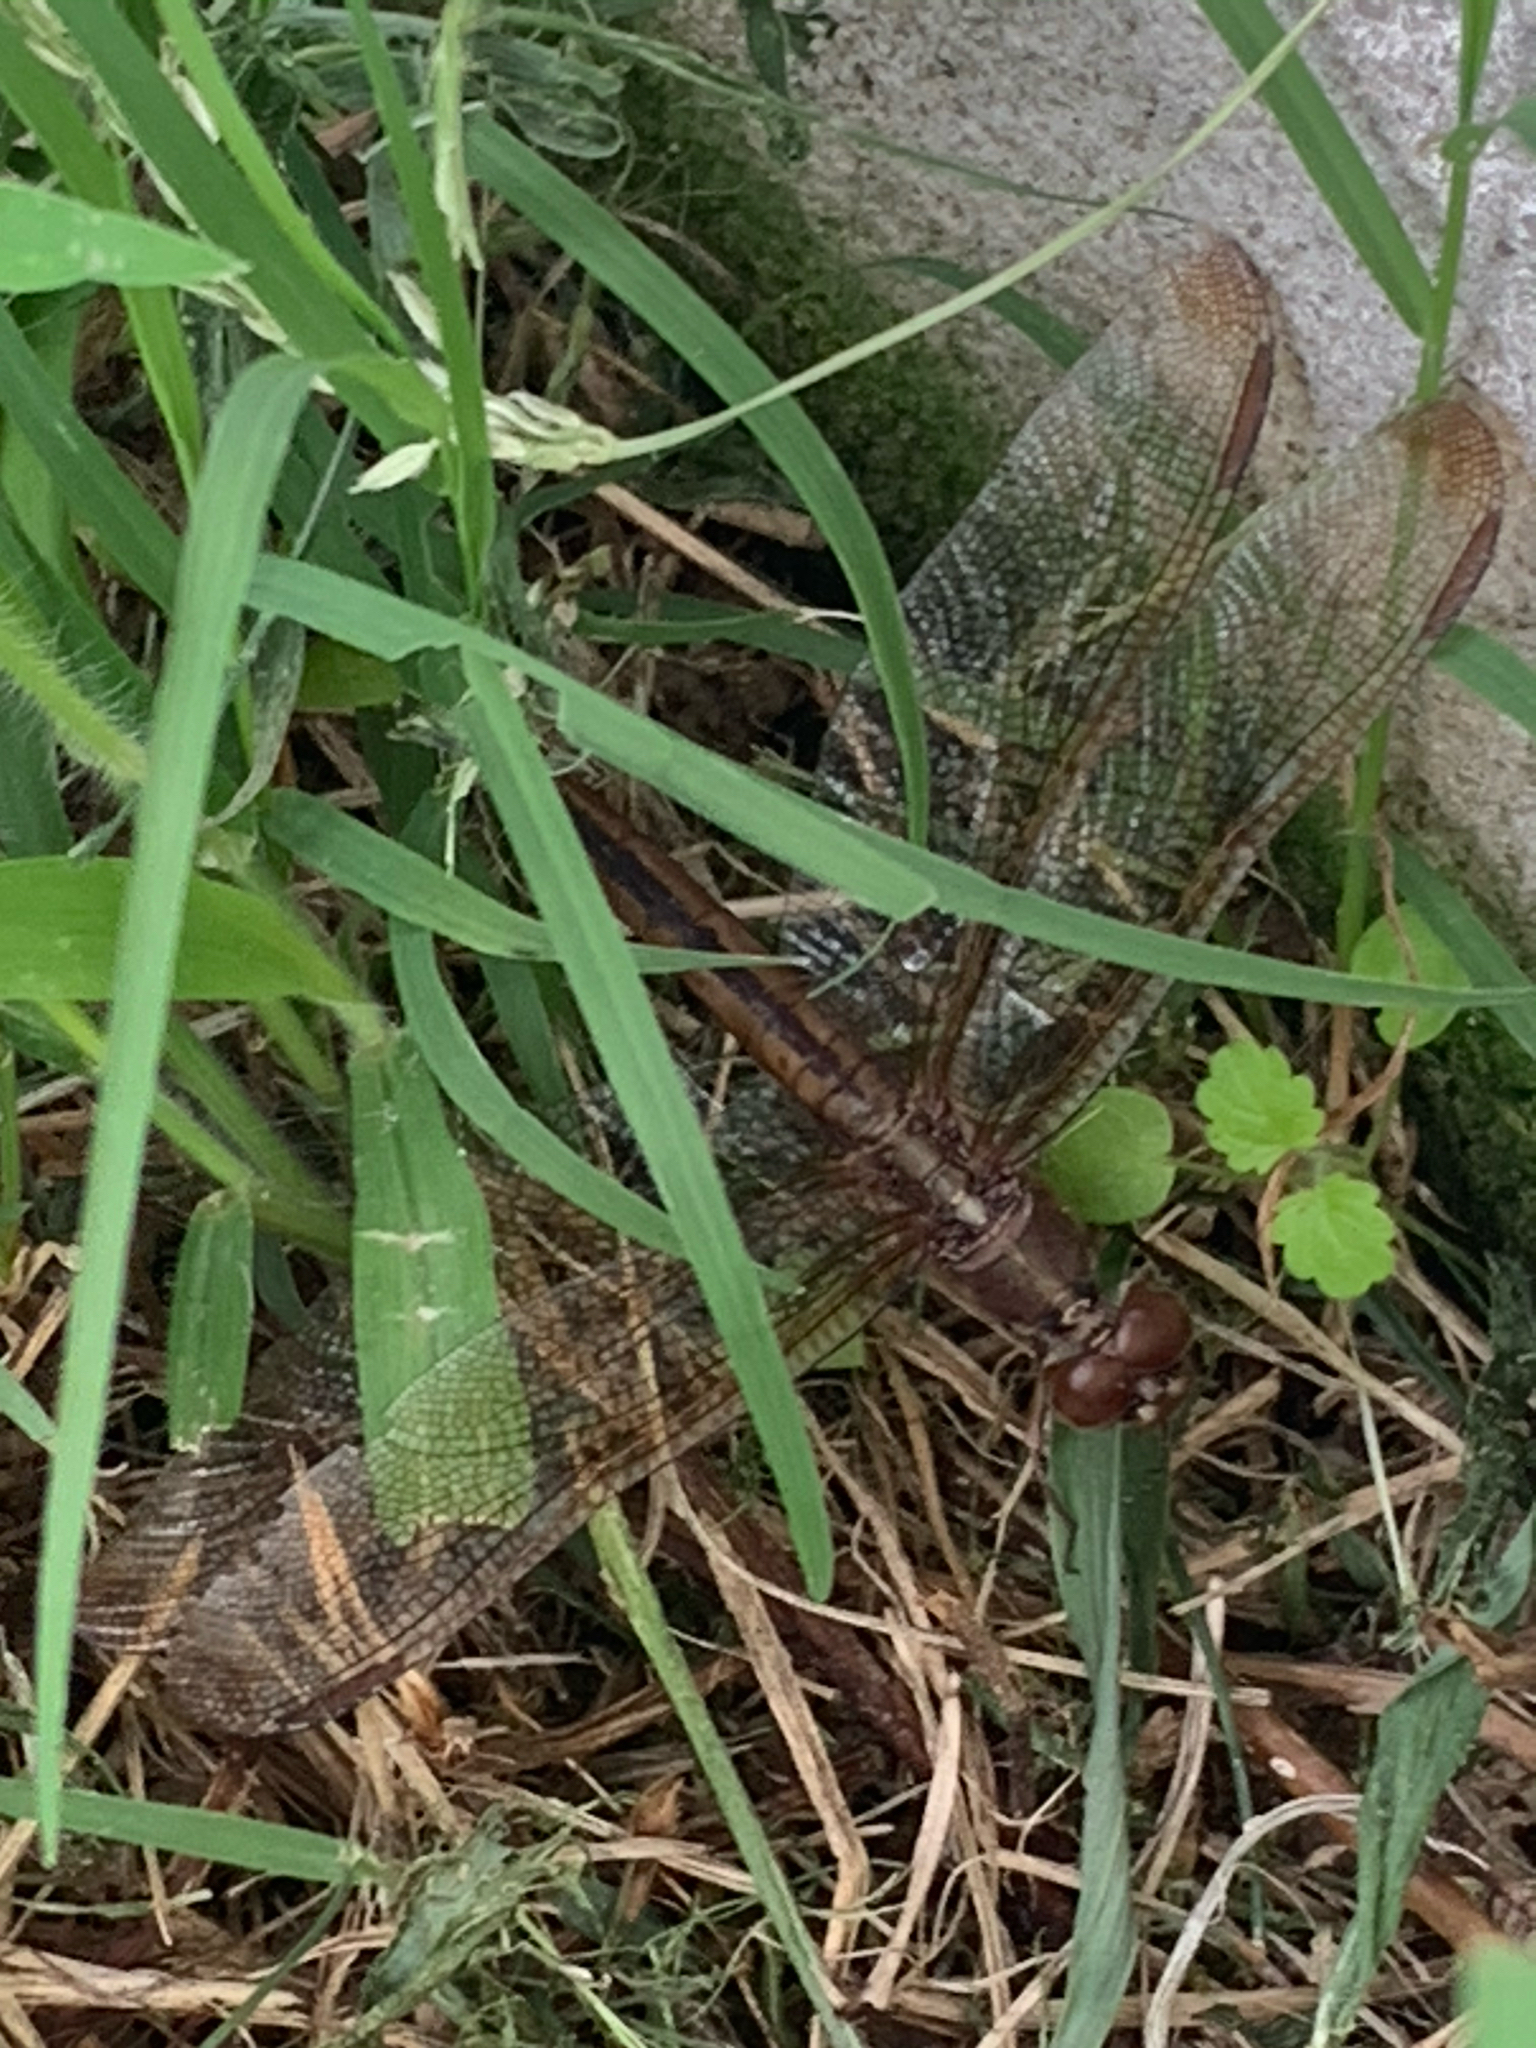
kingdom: Animalia
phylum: Arthropoda
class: Insecta
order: Odonata
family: Libellulidae
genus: Libellula
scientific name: Libellula needhami
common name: Needham's skimmer
